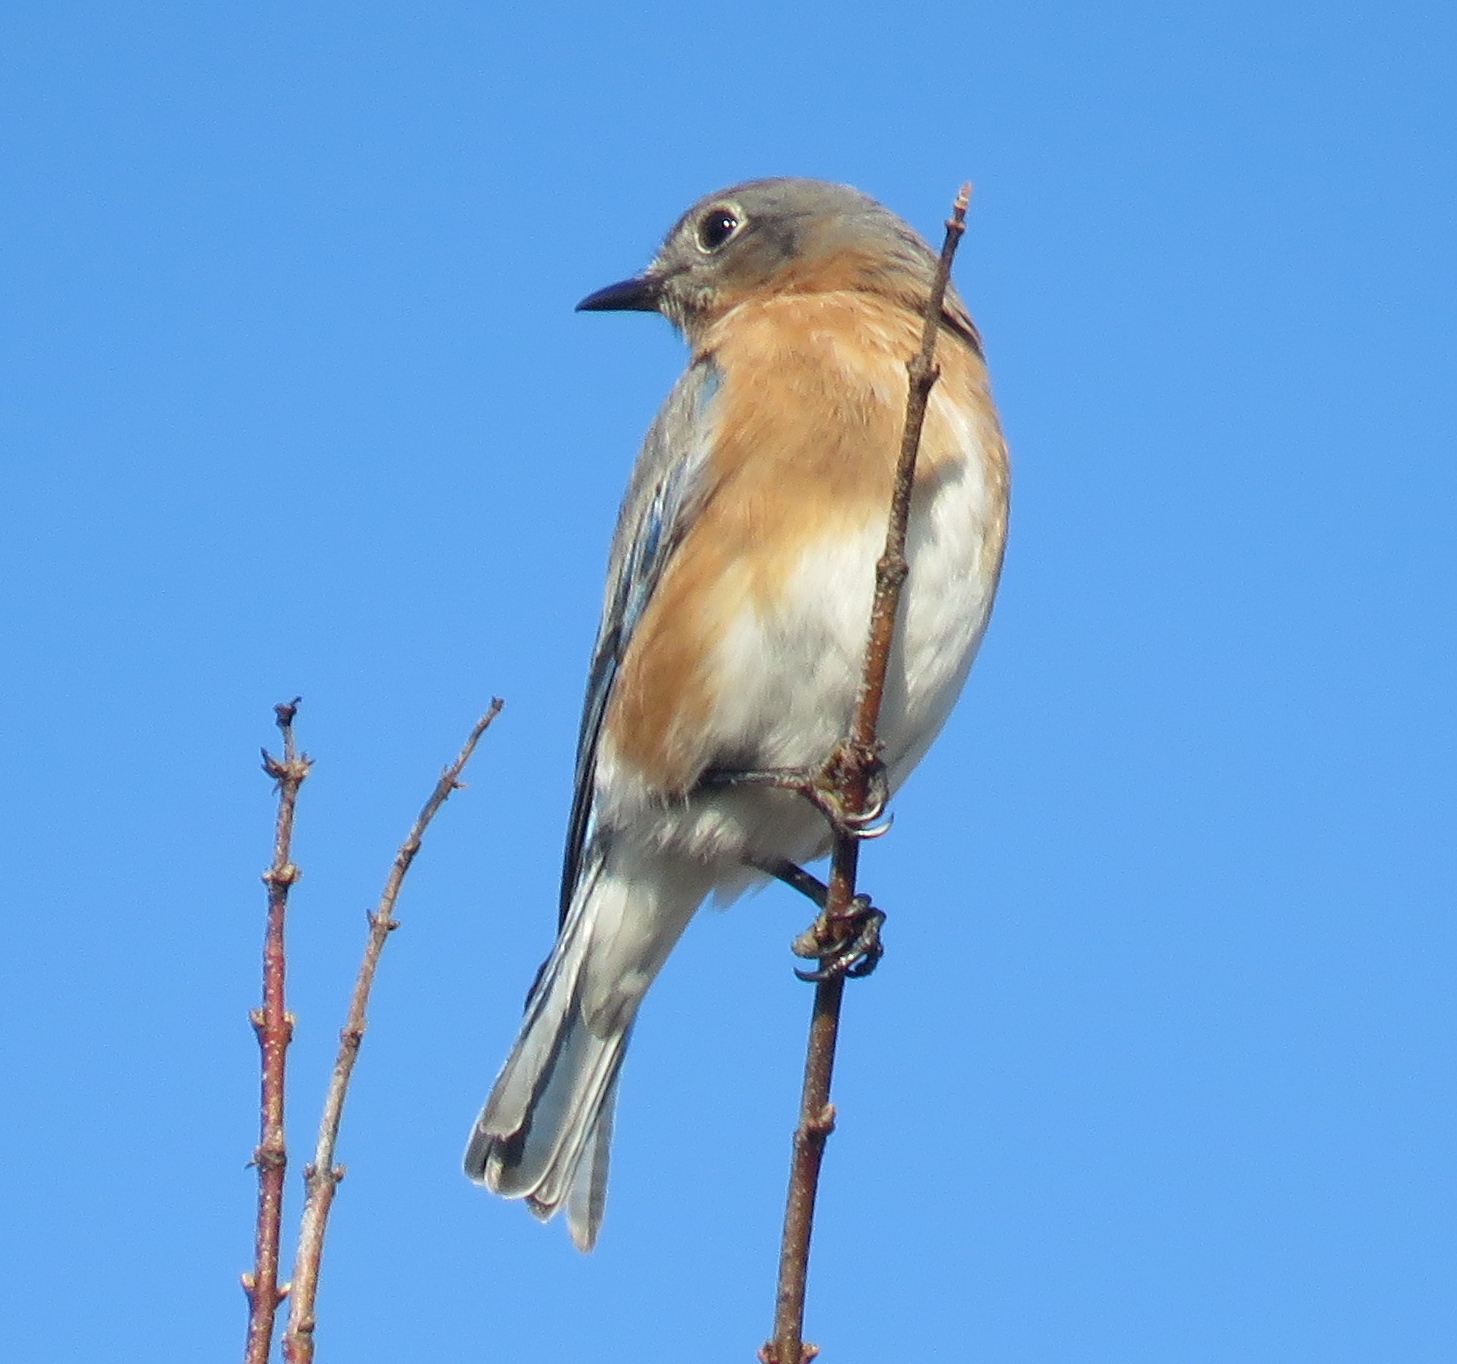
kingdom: Animalia
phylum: Chordata
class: Aves
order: Passeriformes
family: Turdidae
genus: Sialia
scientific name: Sialia sialis
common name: Eastern bluebird
